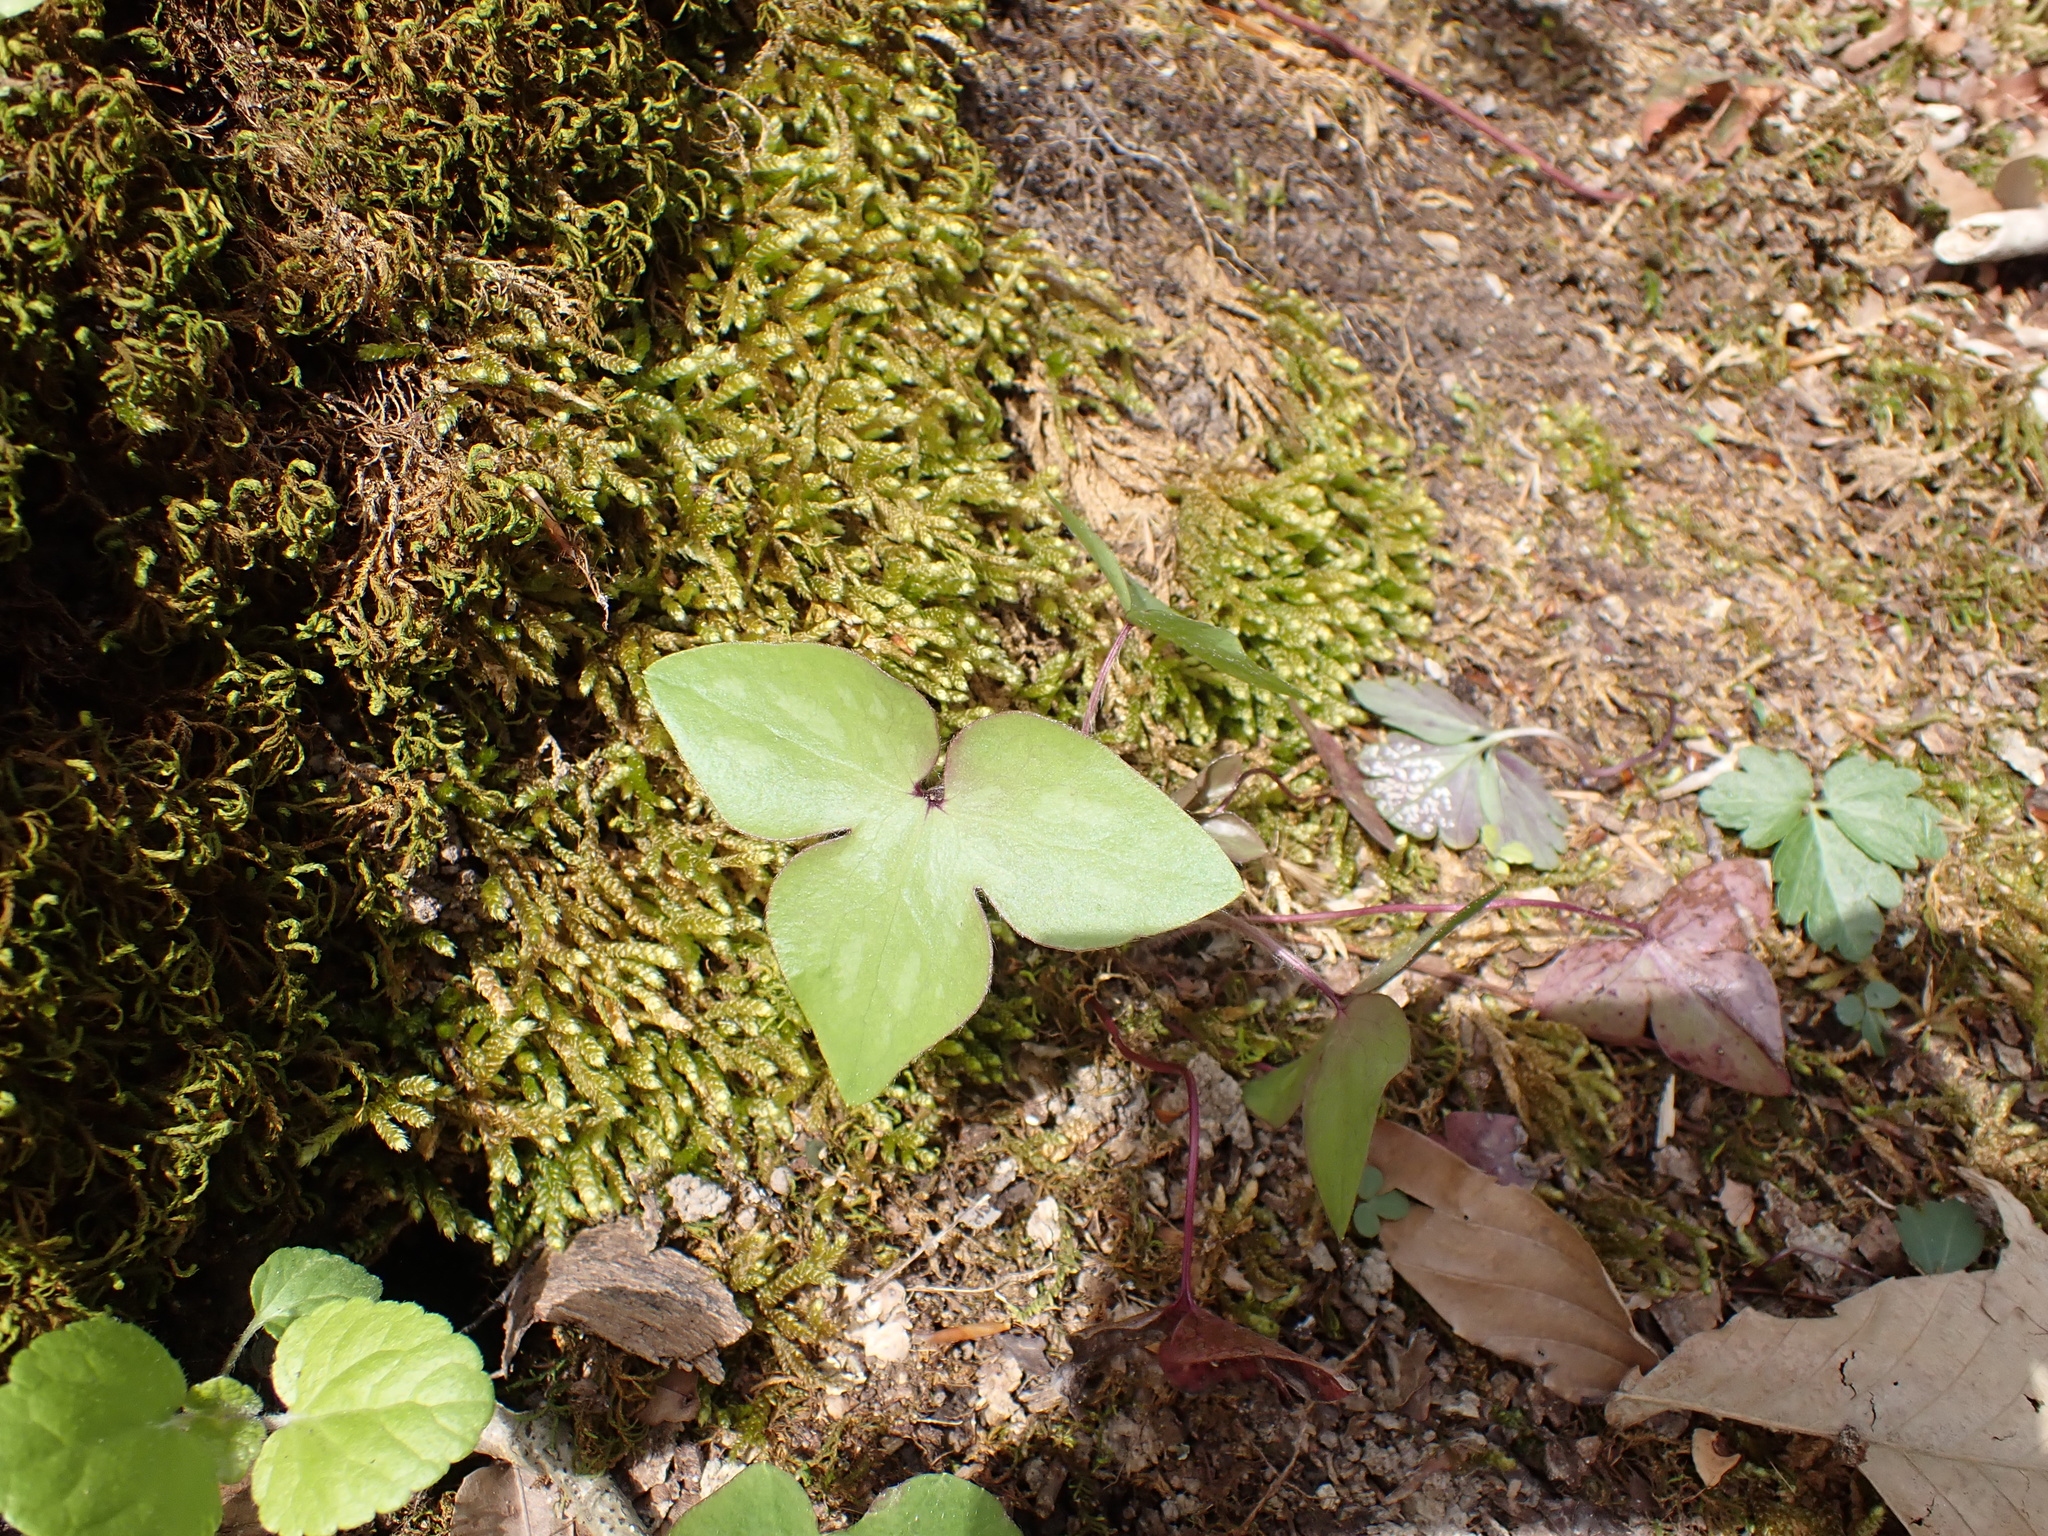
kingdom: Plantae
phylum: Tracheophyta
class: Magnoliopsida
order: Ranunculales
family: Ranunculaceae
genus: Hepatica
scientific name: Hepatica acutiloba
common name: Sharp-lobed hepatica
